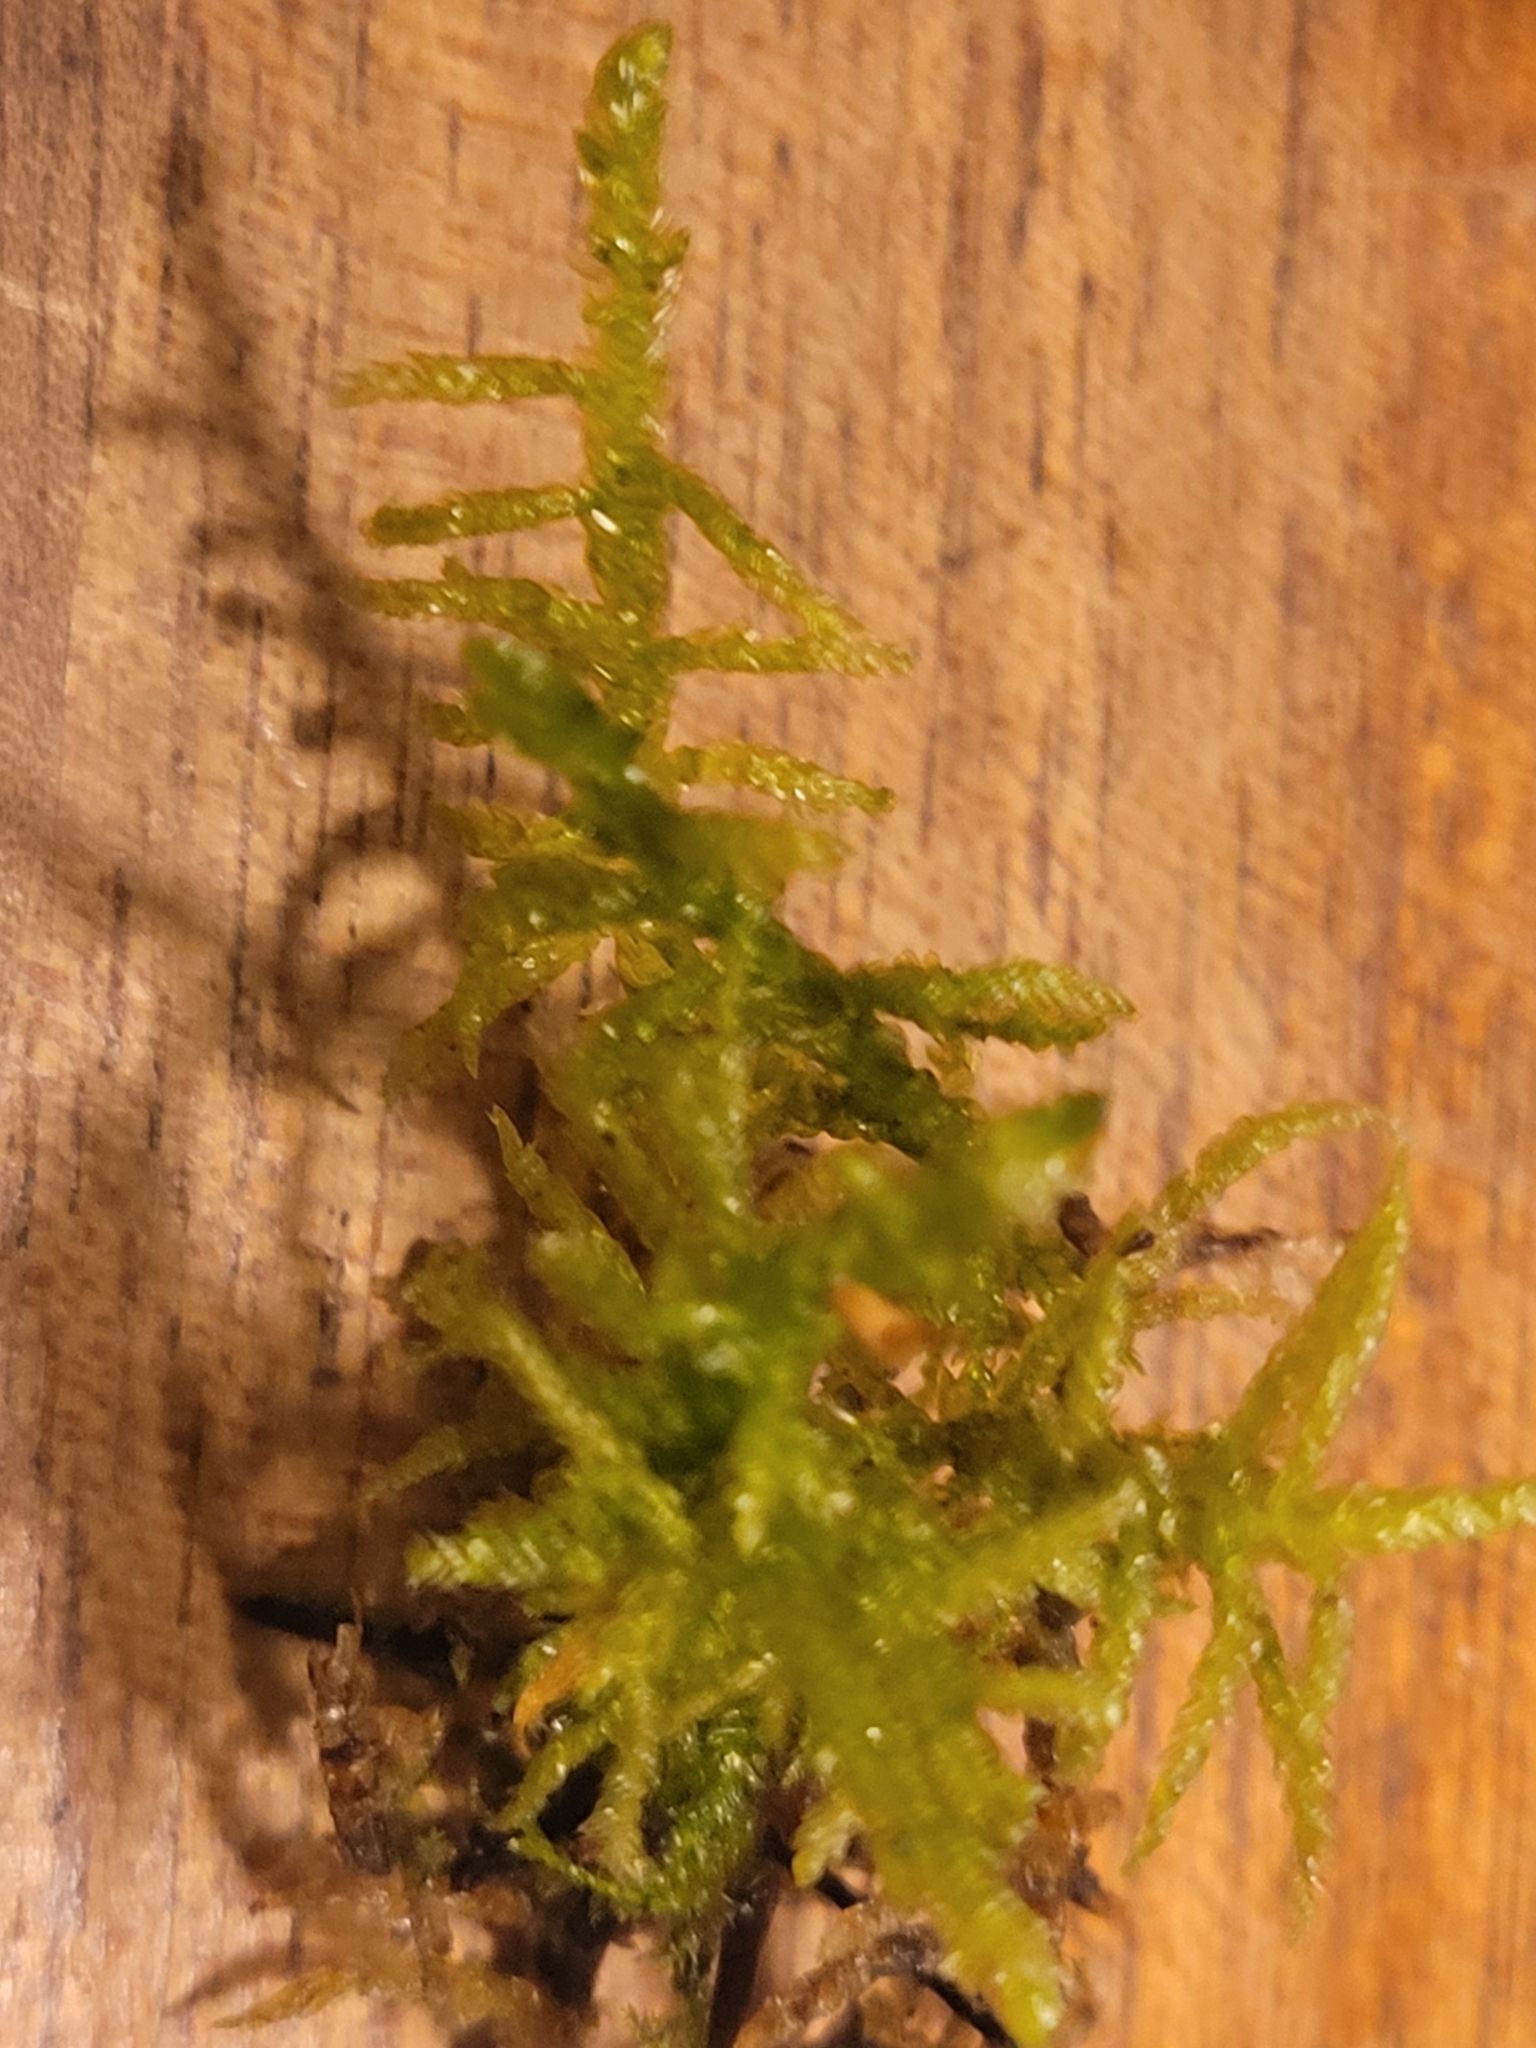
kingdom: Plantae
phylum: Bryophyta
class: Bryopsida
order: Hypnales
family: Brachytheciaceae
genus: Pseudoscleropodium
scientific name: Pseudoscleropodium purum
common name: Neat feather-moss
